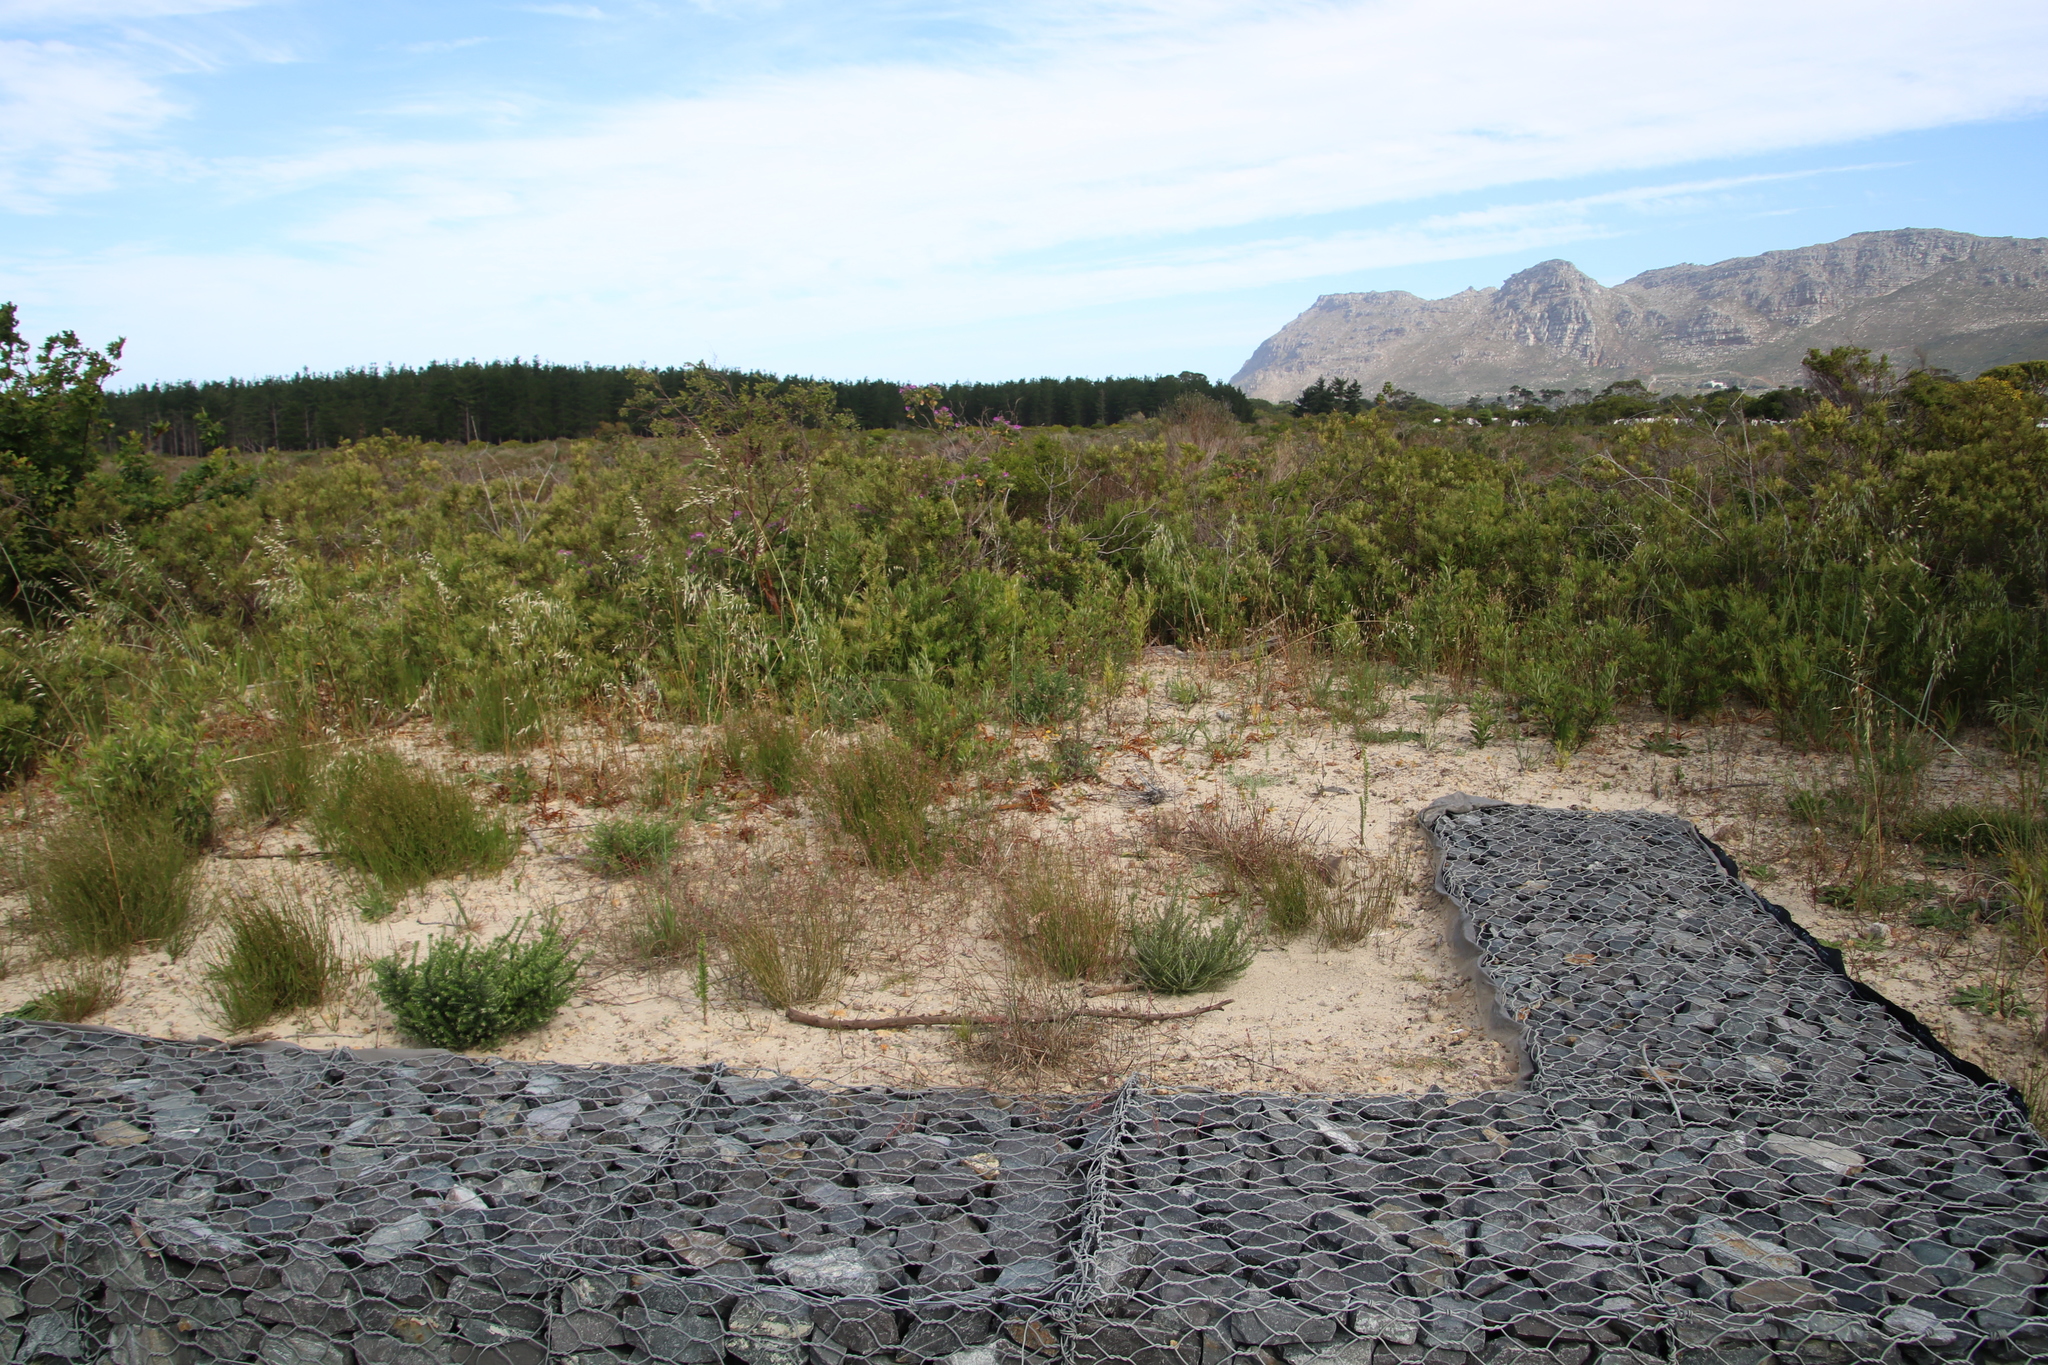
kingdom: Plantae
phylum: Tracheophyta
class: Magnoliopsida
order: Sapindales
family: Anacardiaceae
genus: Searsia
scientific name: Searsia angustifolia
